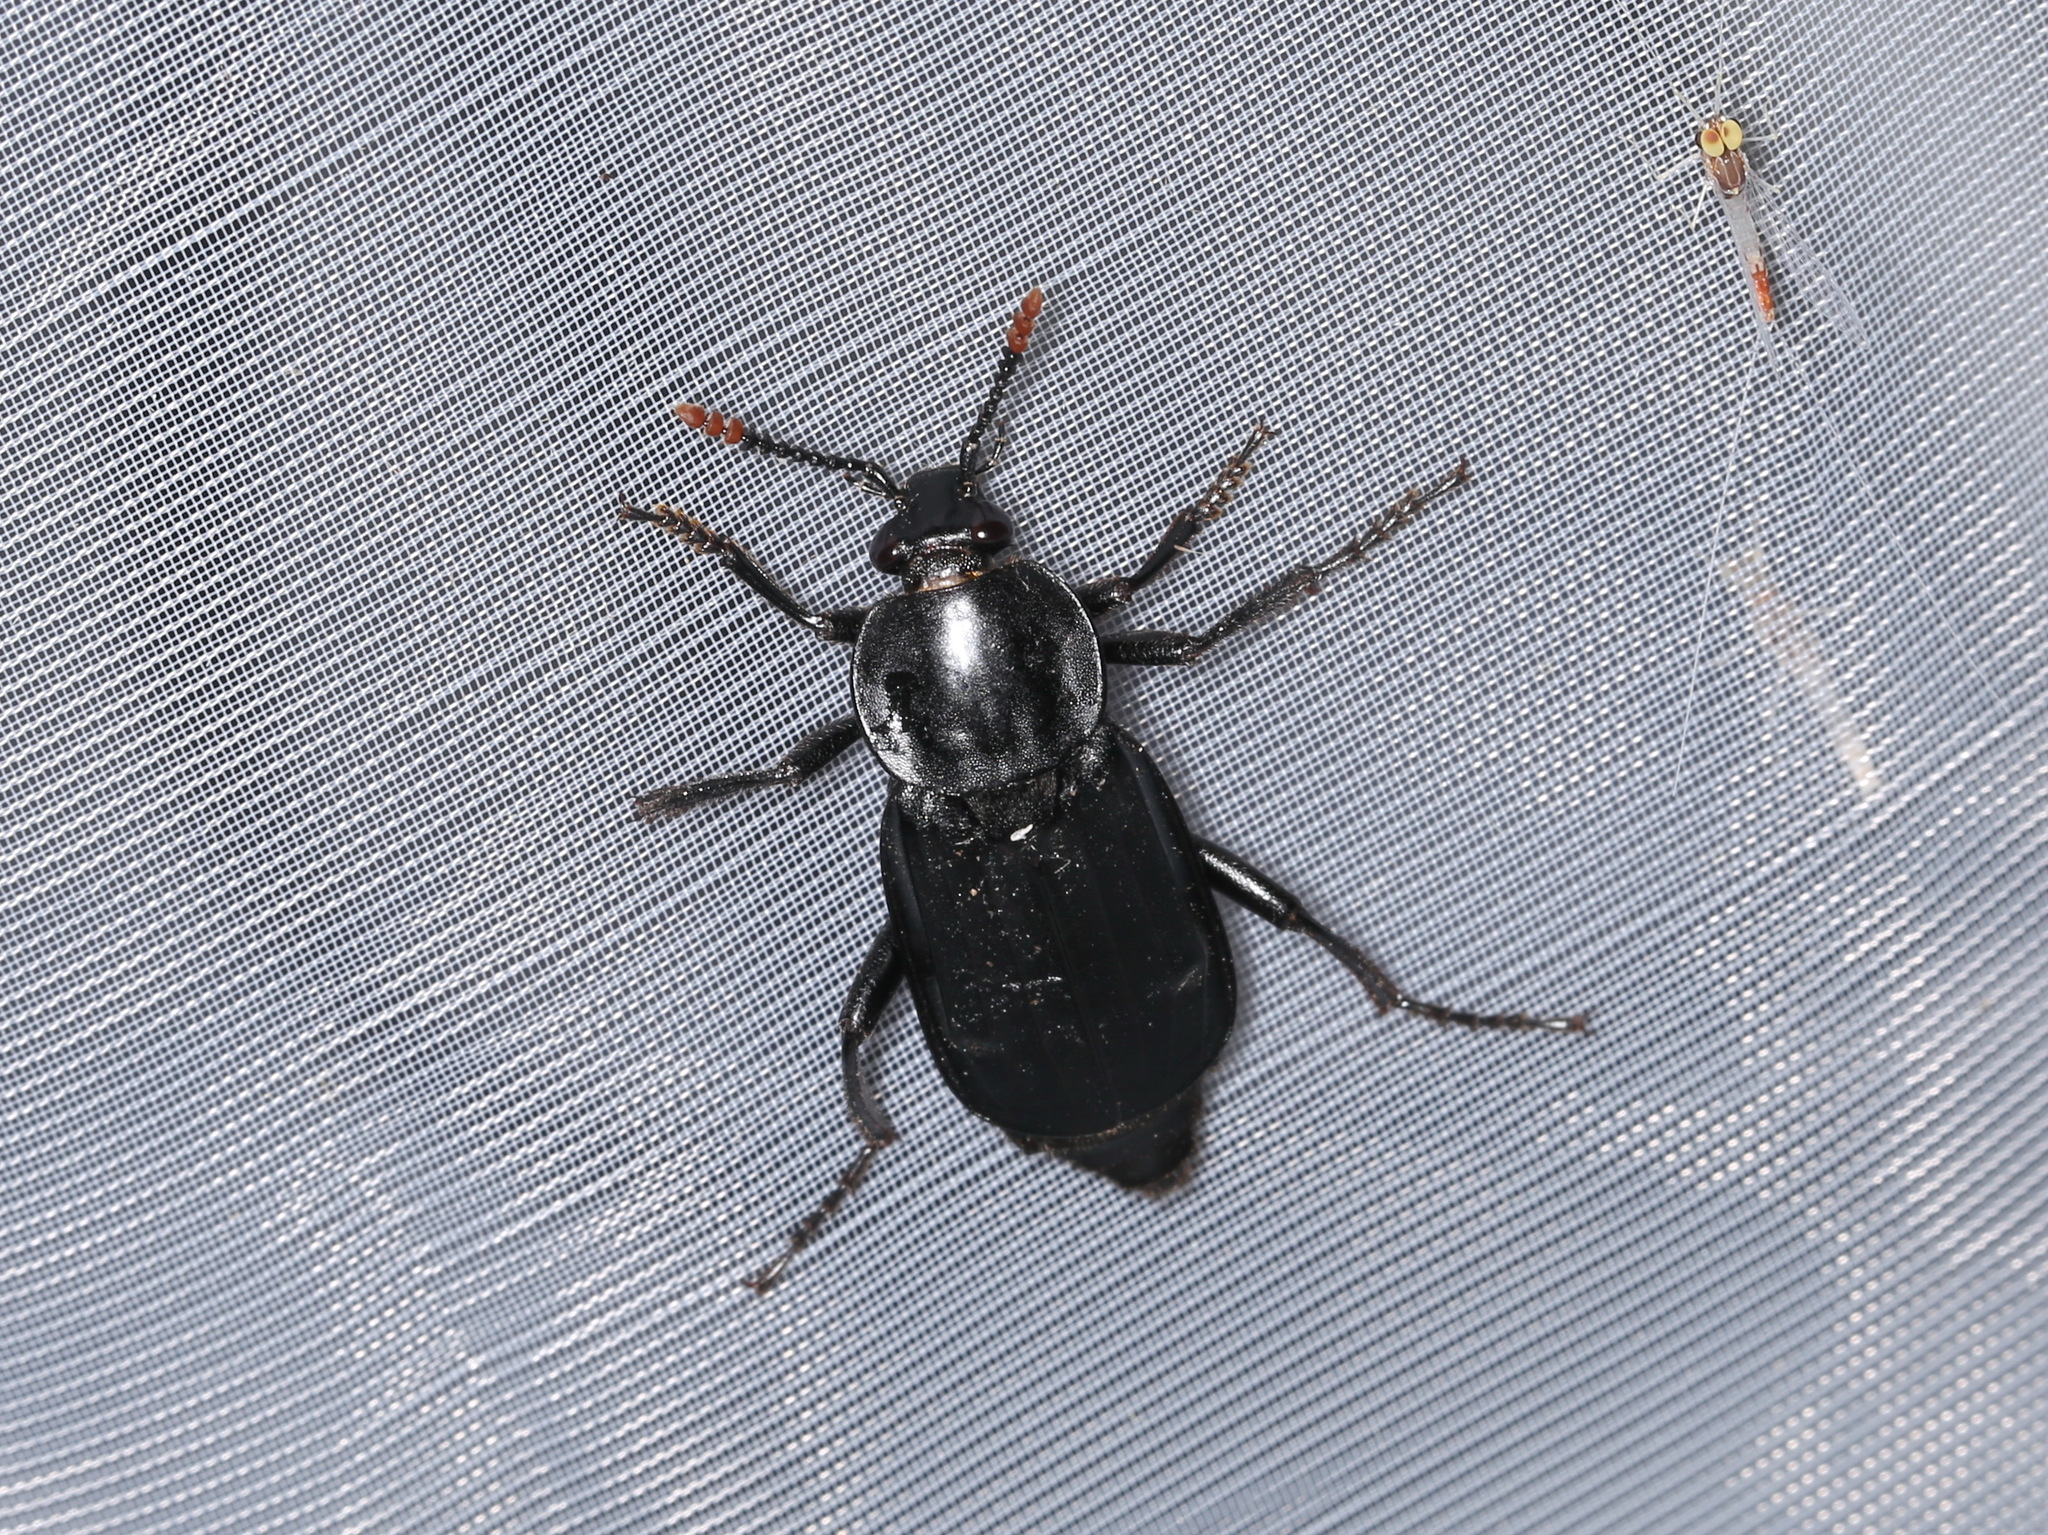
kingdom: Animalia
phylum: Arthropoda
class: Insecta
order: Coleoptera
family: Staphylinidae
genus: Necrodes
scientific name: Necrodes littoralis
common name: Shore sexton beetle
